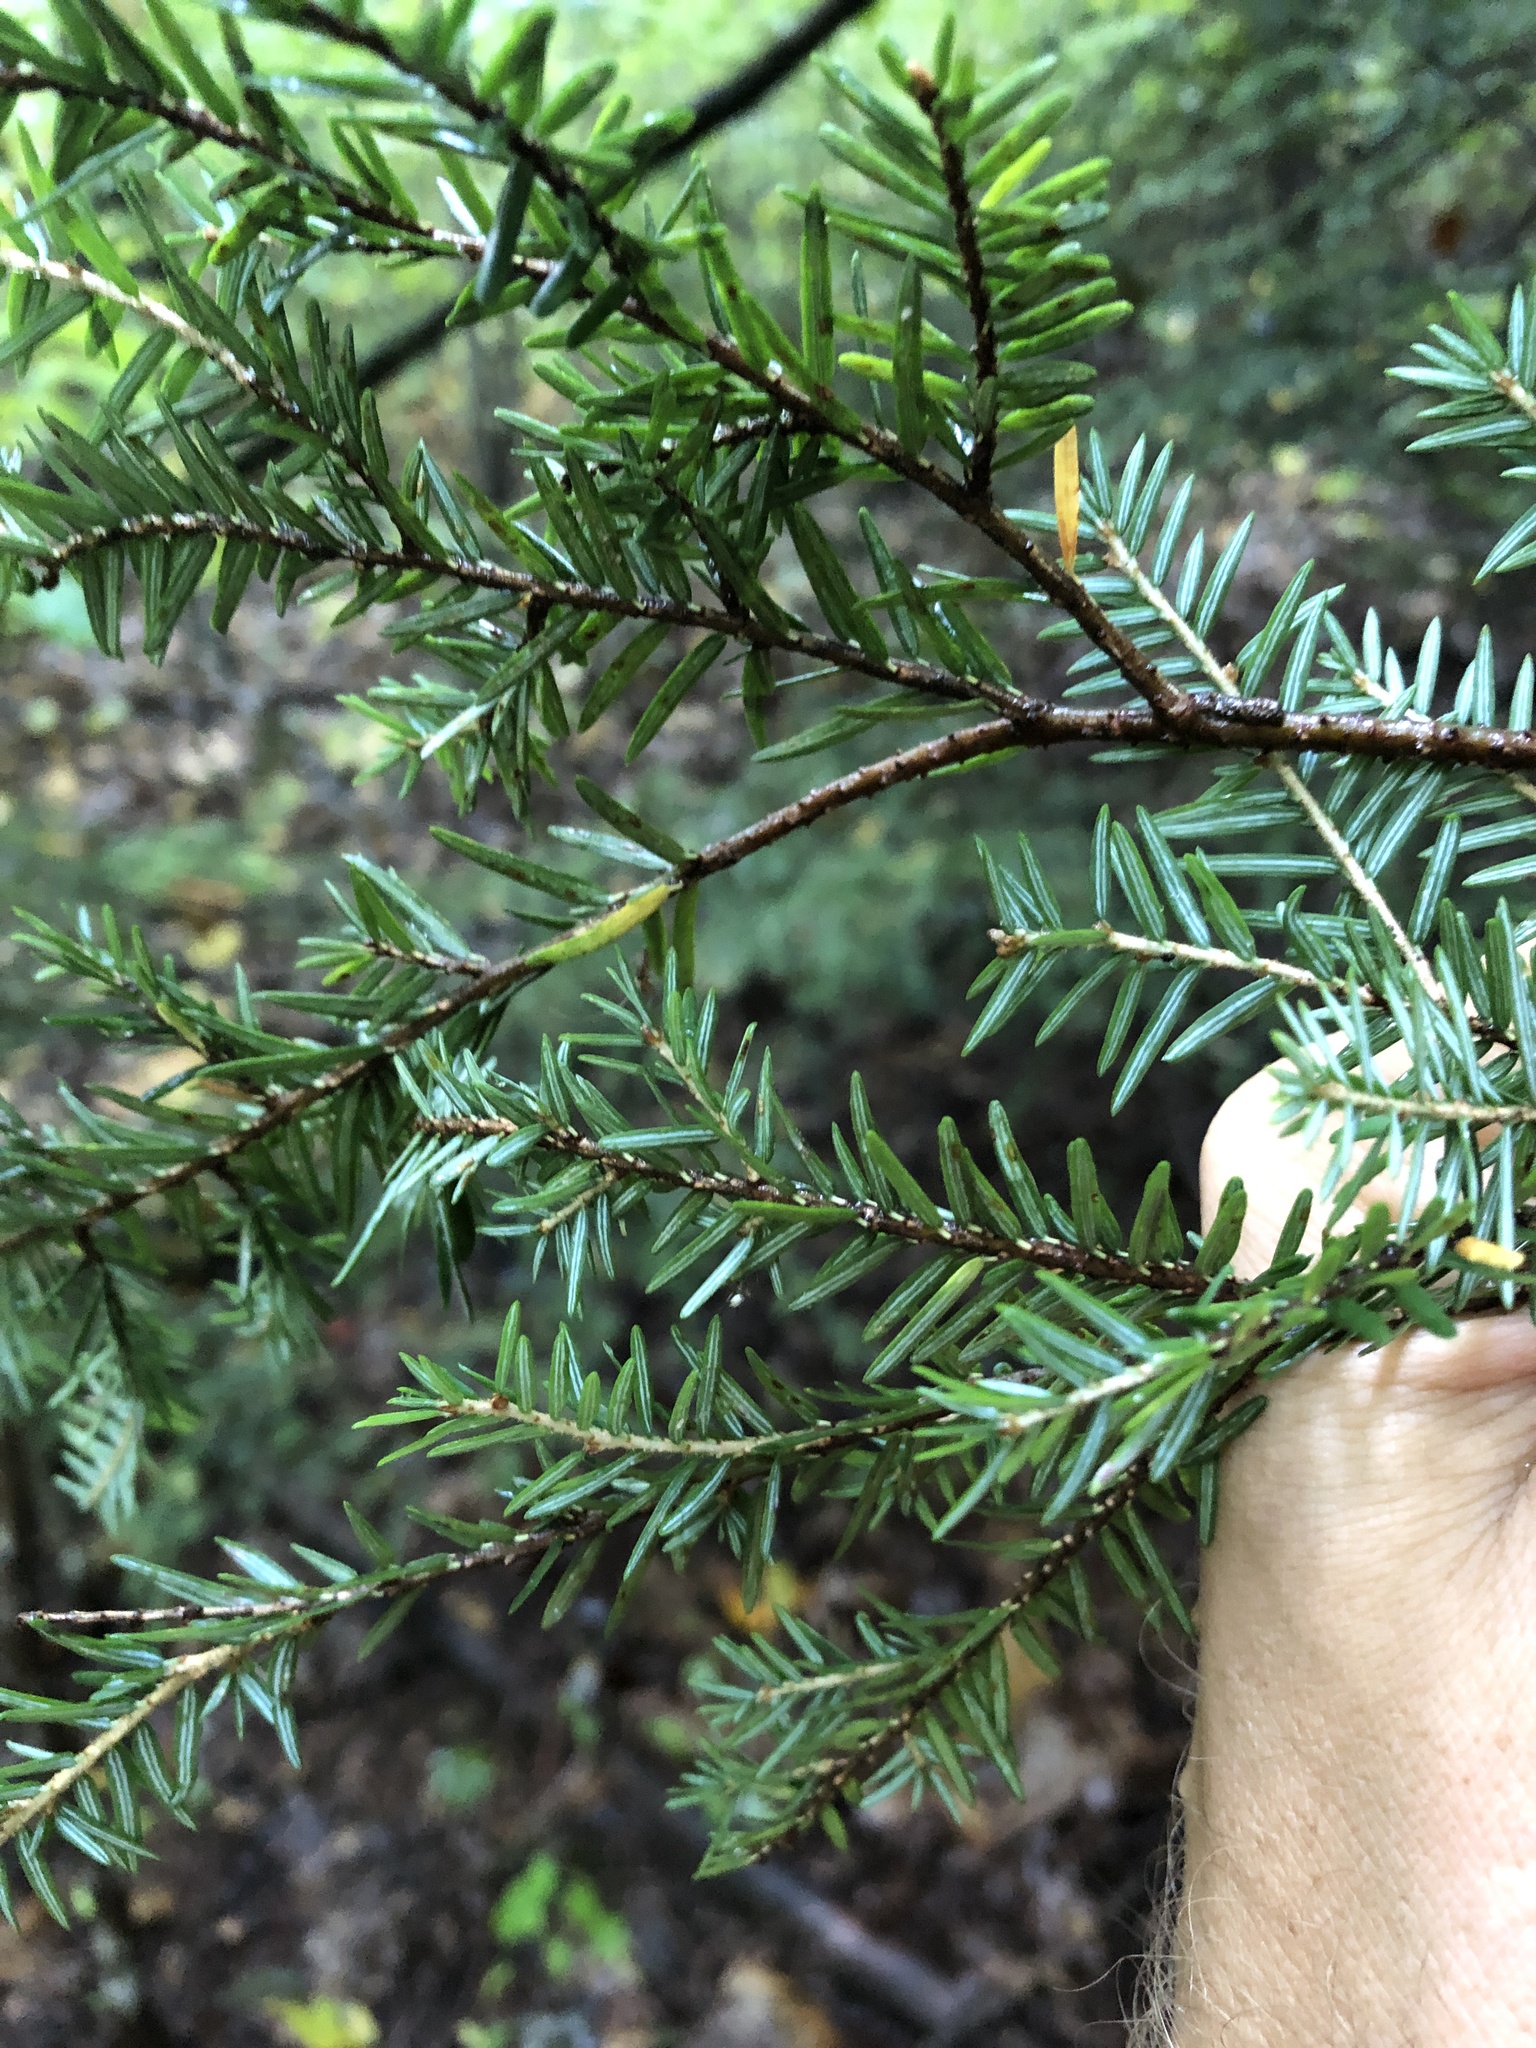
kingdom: Plantae
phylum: Tracheophyta
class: Pinopsida
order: Pinales
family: Pinaceae
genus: Tsuga
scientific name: Tsuga canadensis
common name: Eastern hemlock
